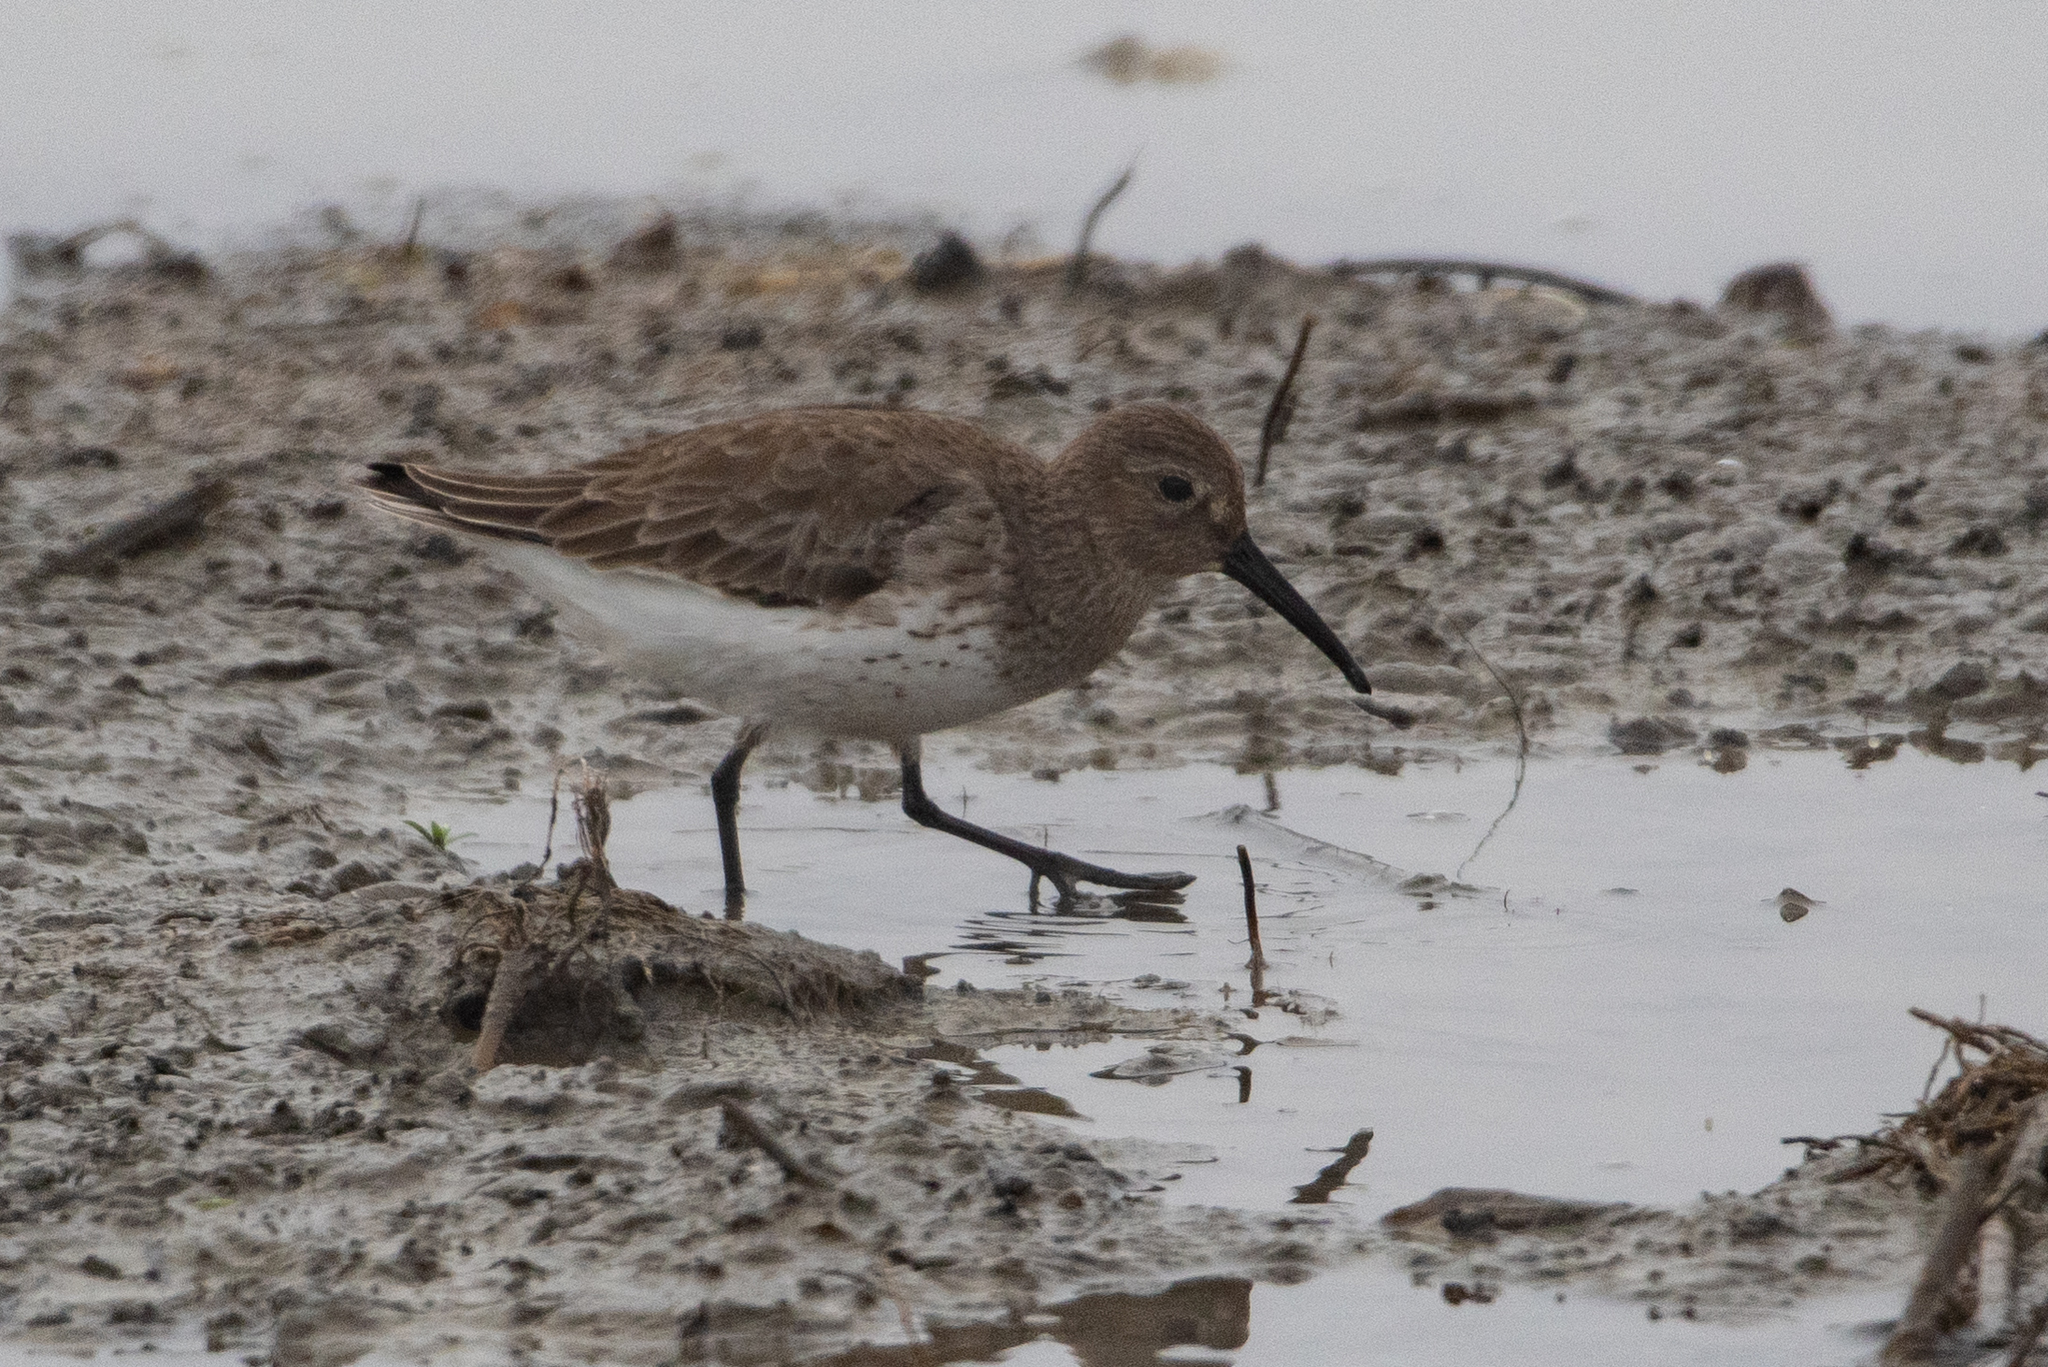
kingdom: Animalia
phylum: Chordata
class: Aves
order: Charadriiformes
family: Scolopacidae
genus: Calidris
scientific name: Calidris mauri
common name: Western sandpiper
